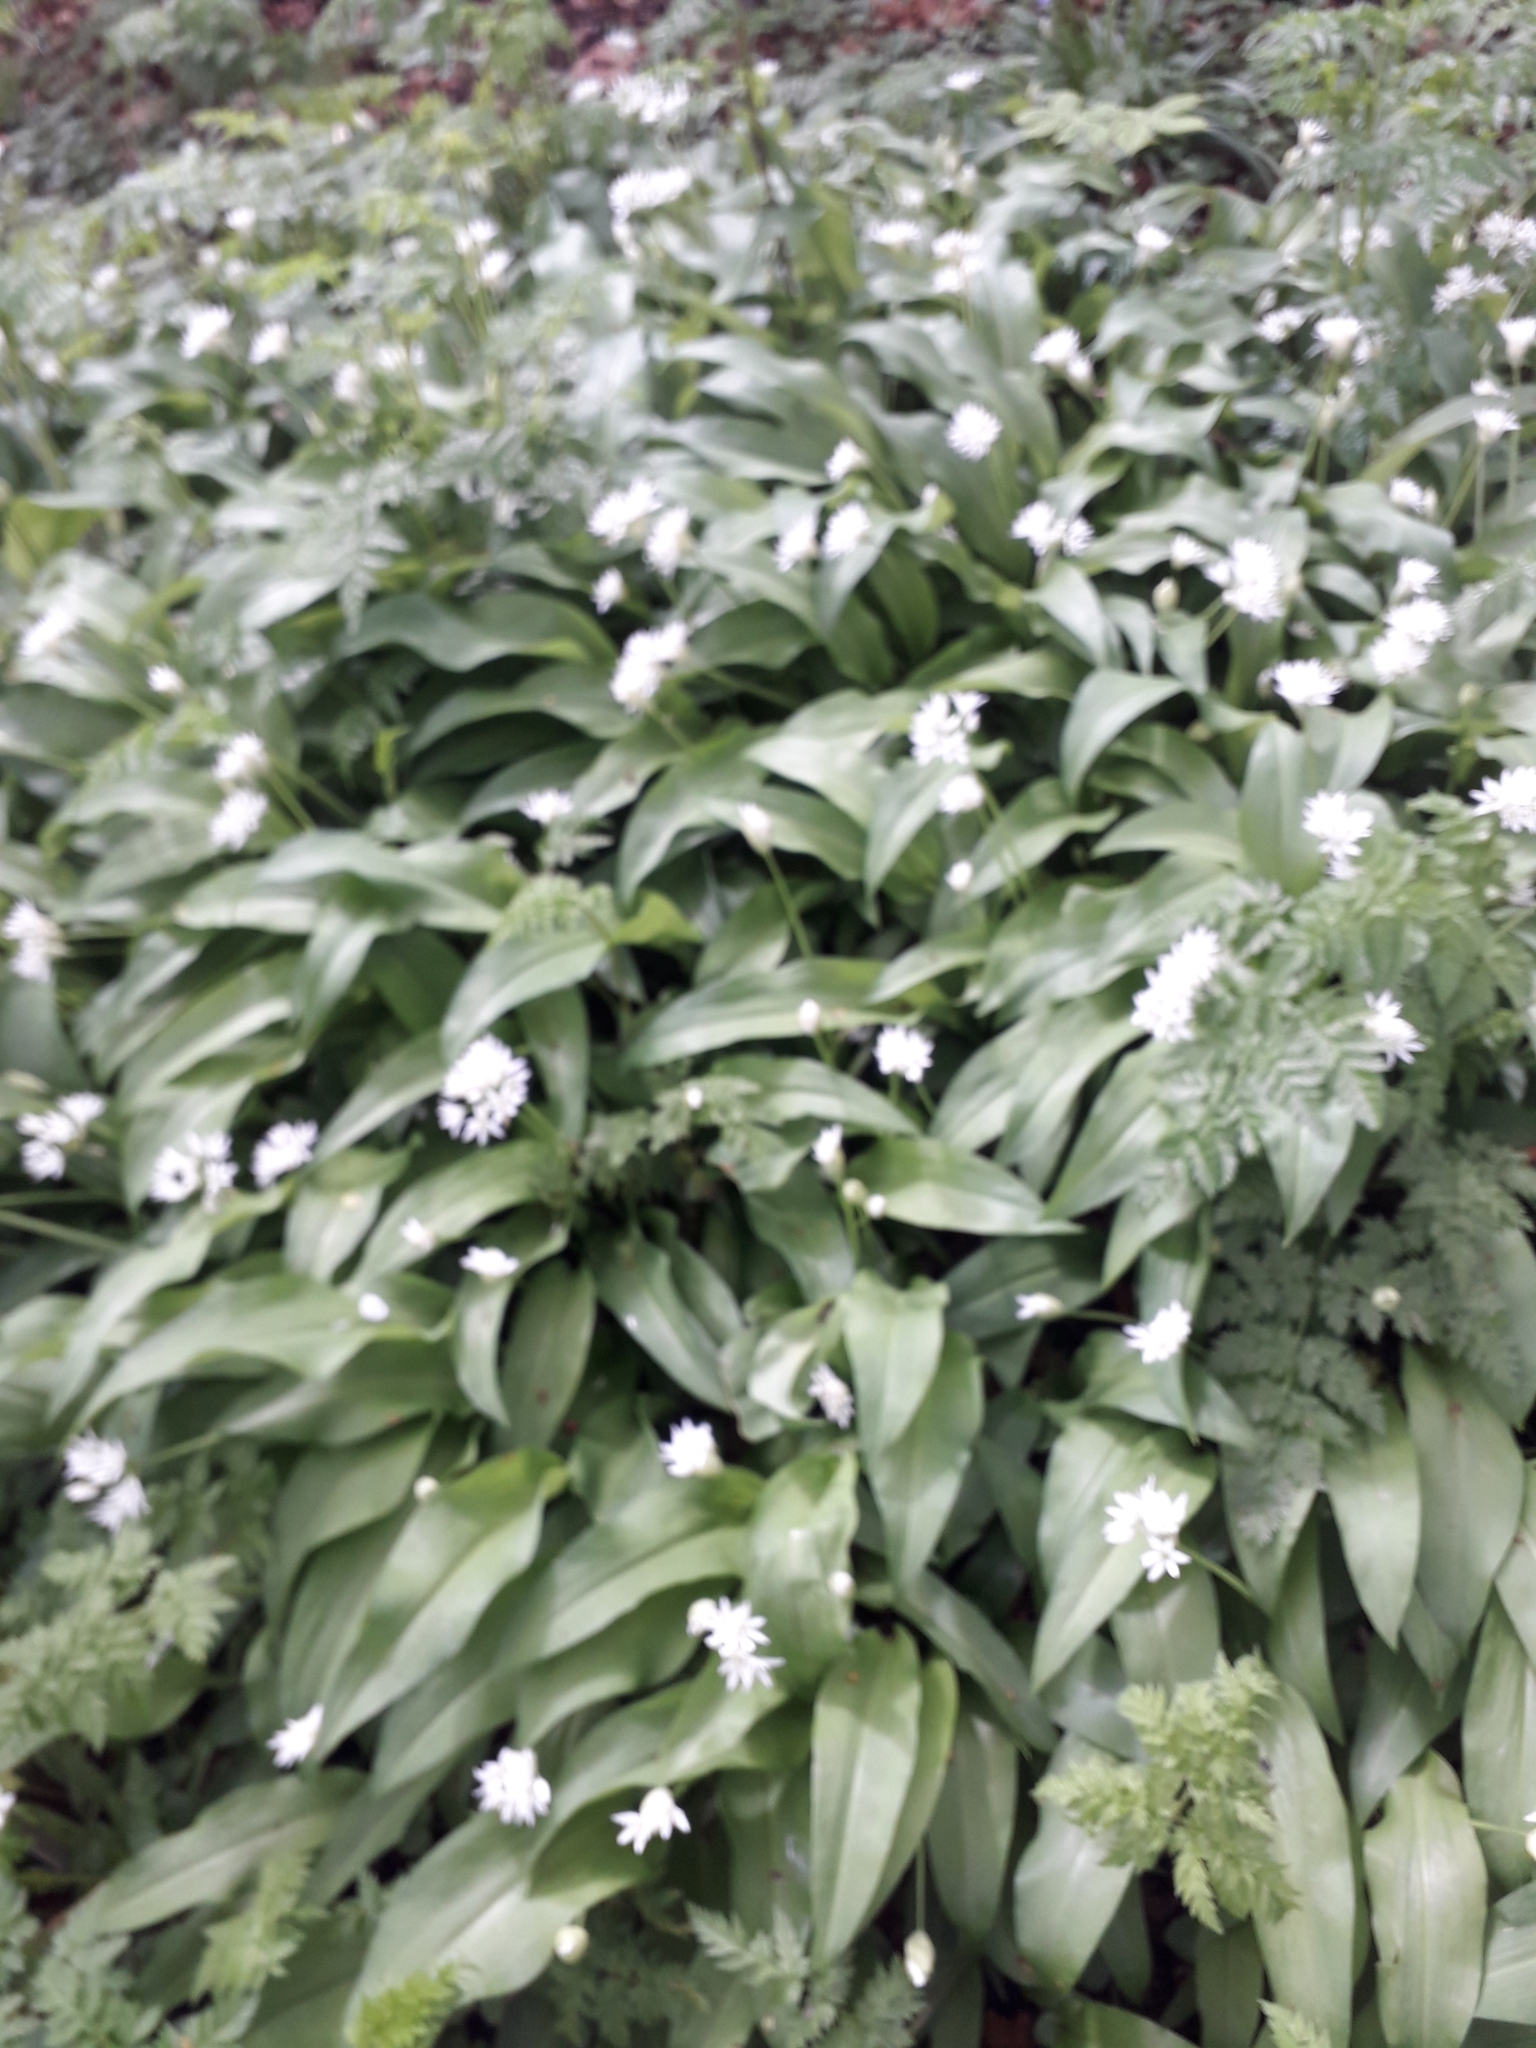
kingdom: Plantae
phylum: Tracheophyta
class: Liliopsida
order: Asparagales
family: Amaryllidaceae
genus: Allium
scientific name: Allium ursinum
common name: Ramsons
